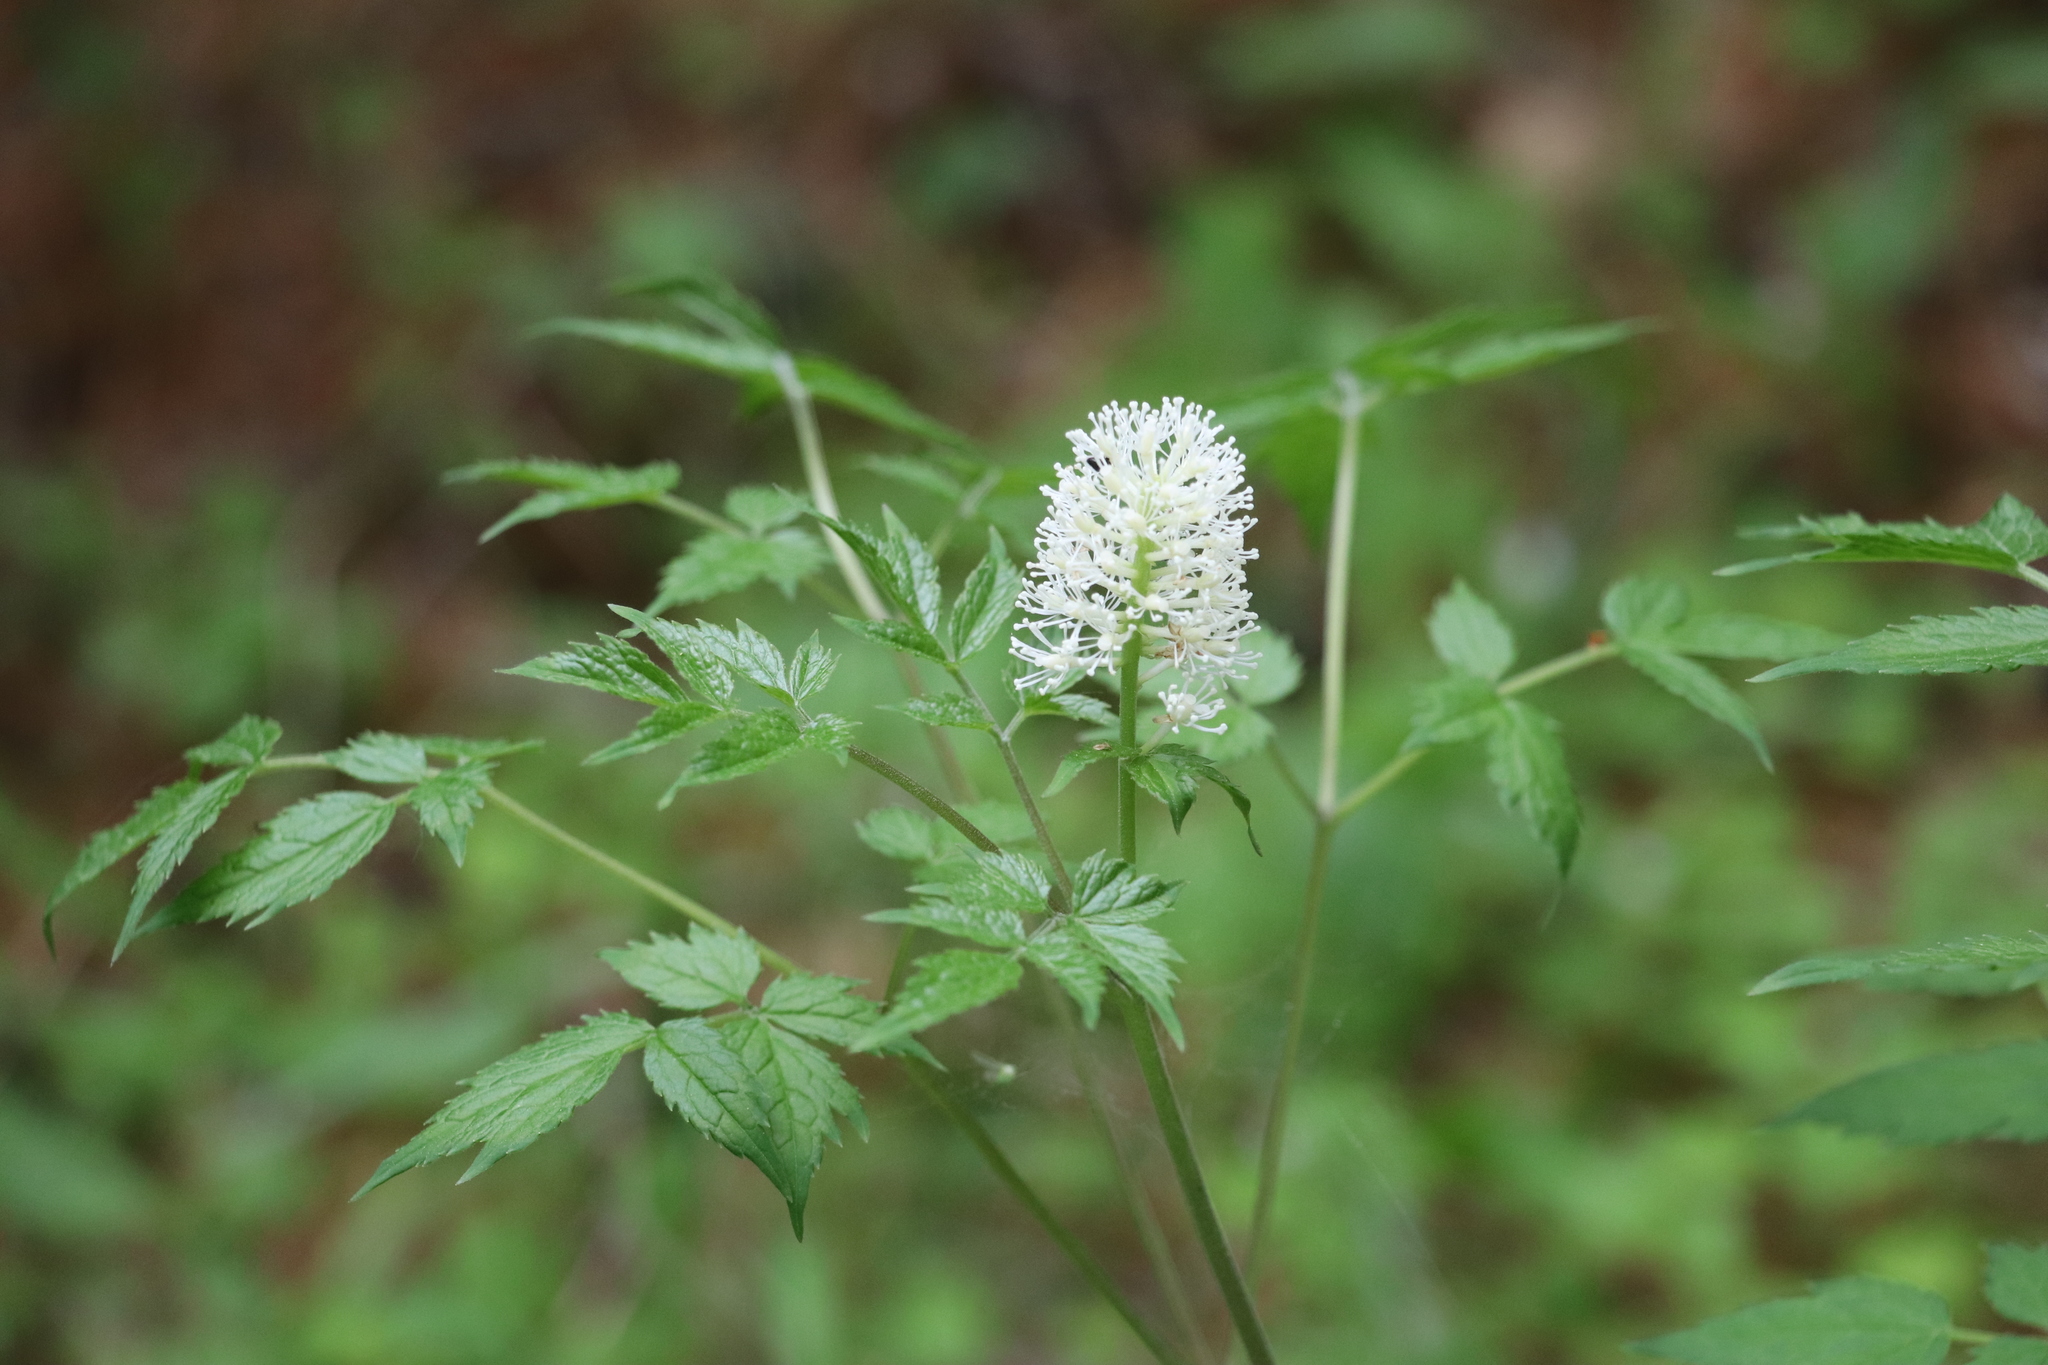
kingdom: Plantae
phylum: Tracheophyta
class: Magnoliopsida
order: Ranunculales
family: Ranunculaceae
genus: Actaea
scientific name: Actaea erythrocarpa
